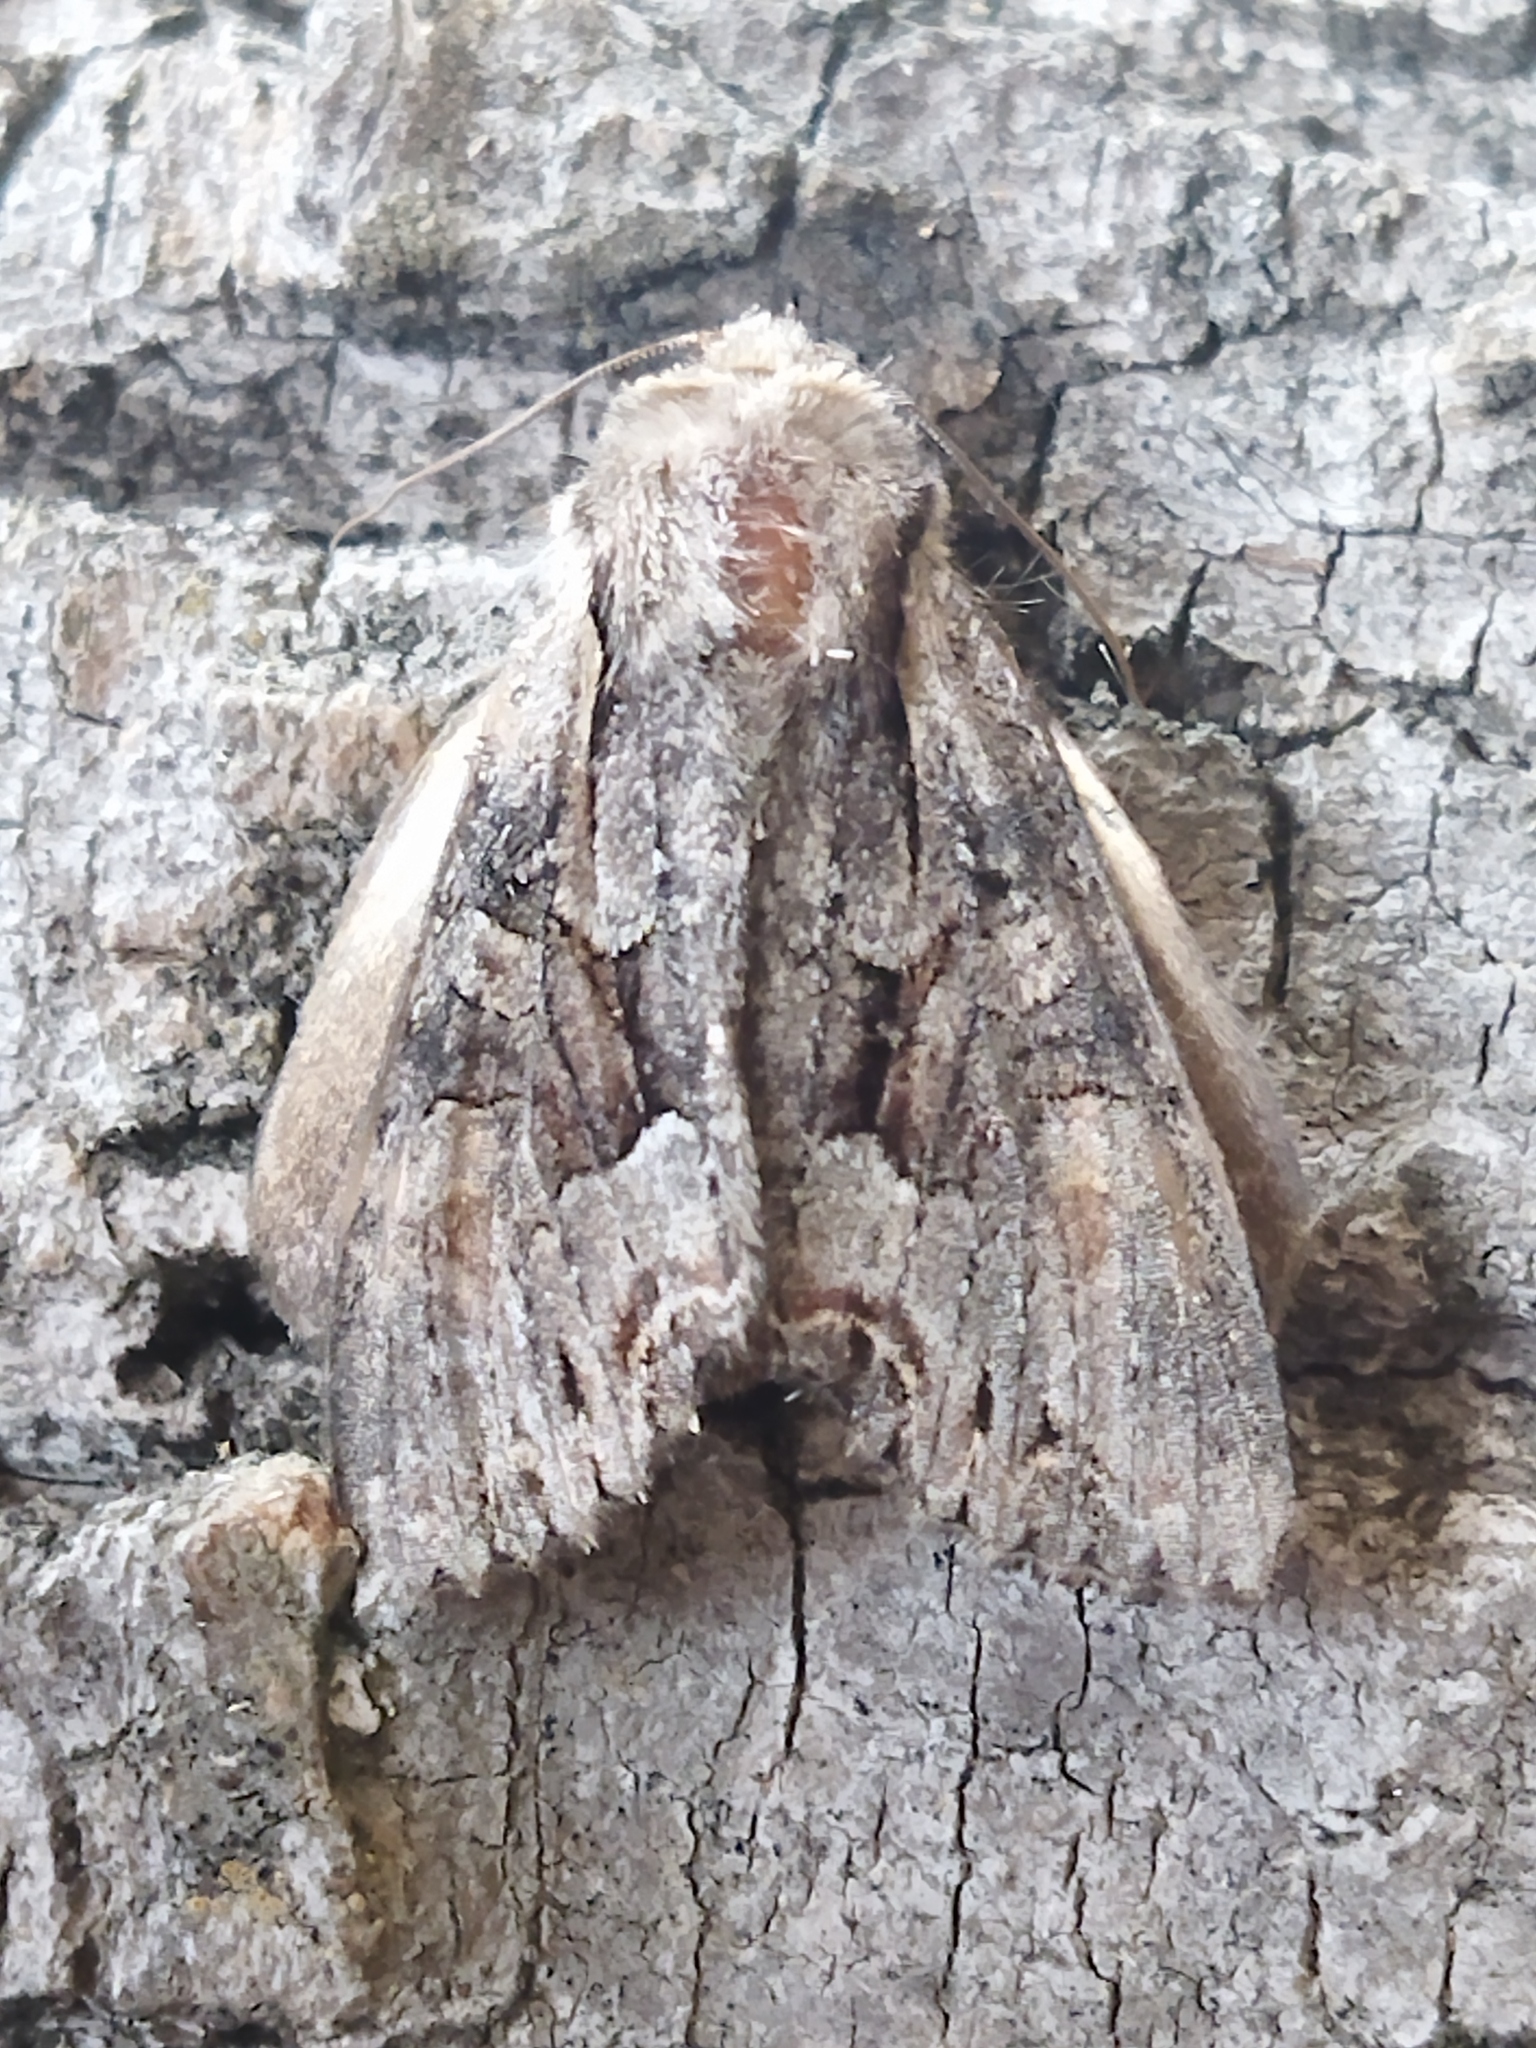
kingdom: Animalia
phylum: Arthropoda
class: Insecta
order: Lepidoptera
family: Noctuidae
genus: Lacanobia
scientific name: Lacanobia w-latinum
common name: Light brocade
